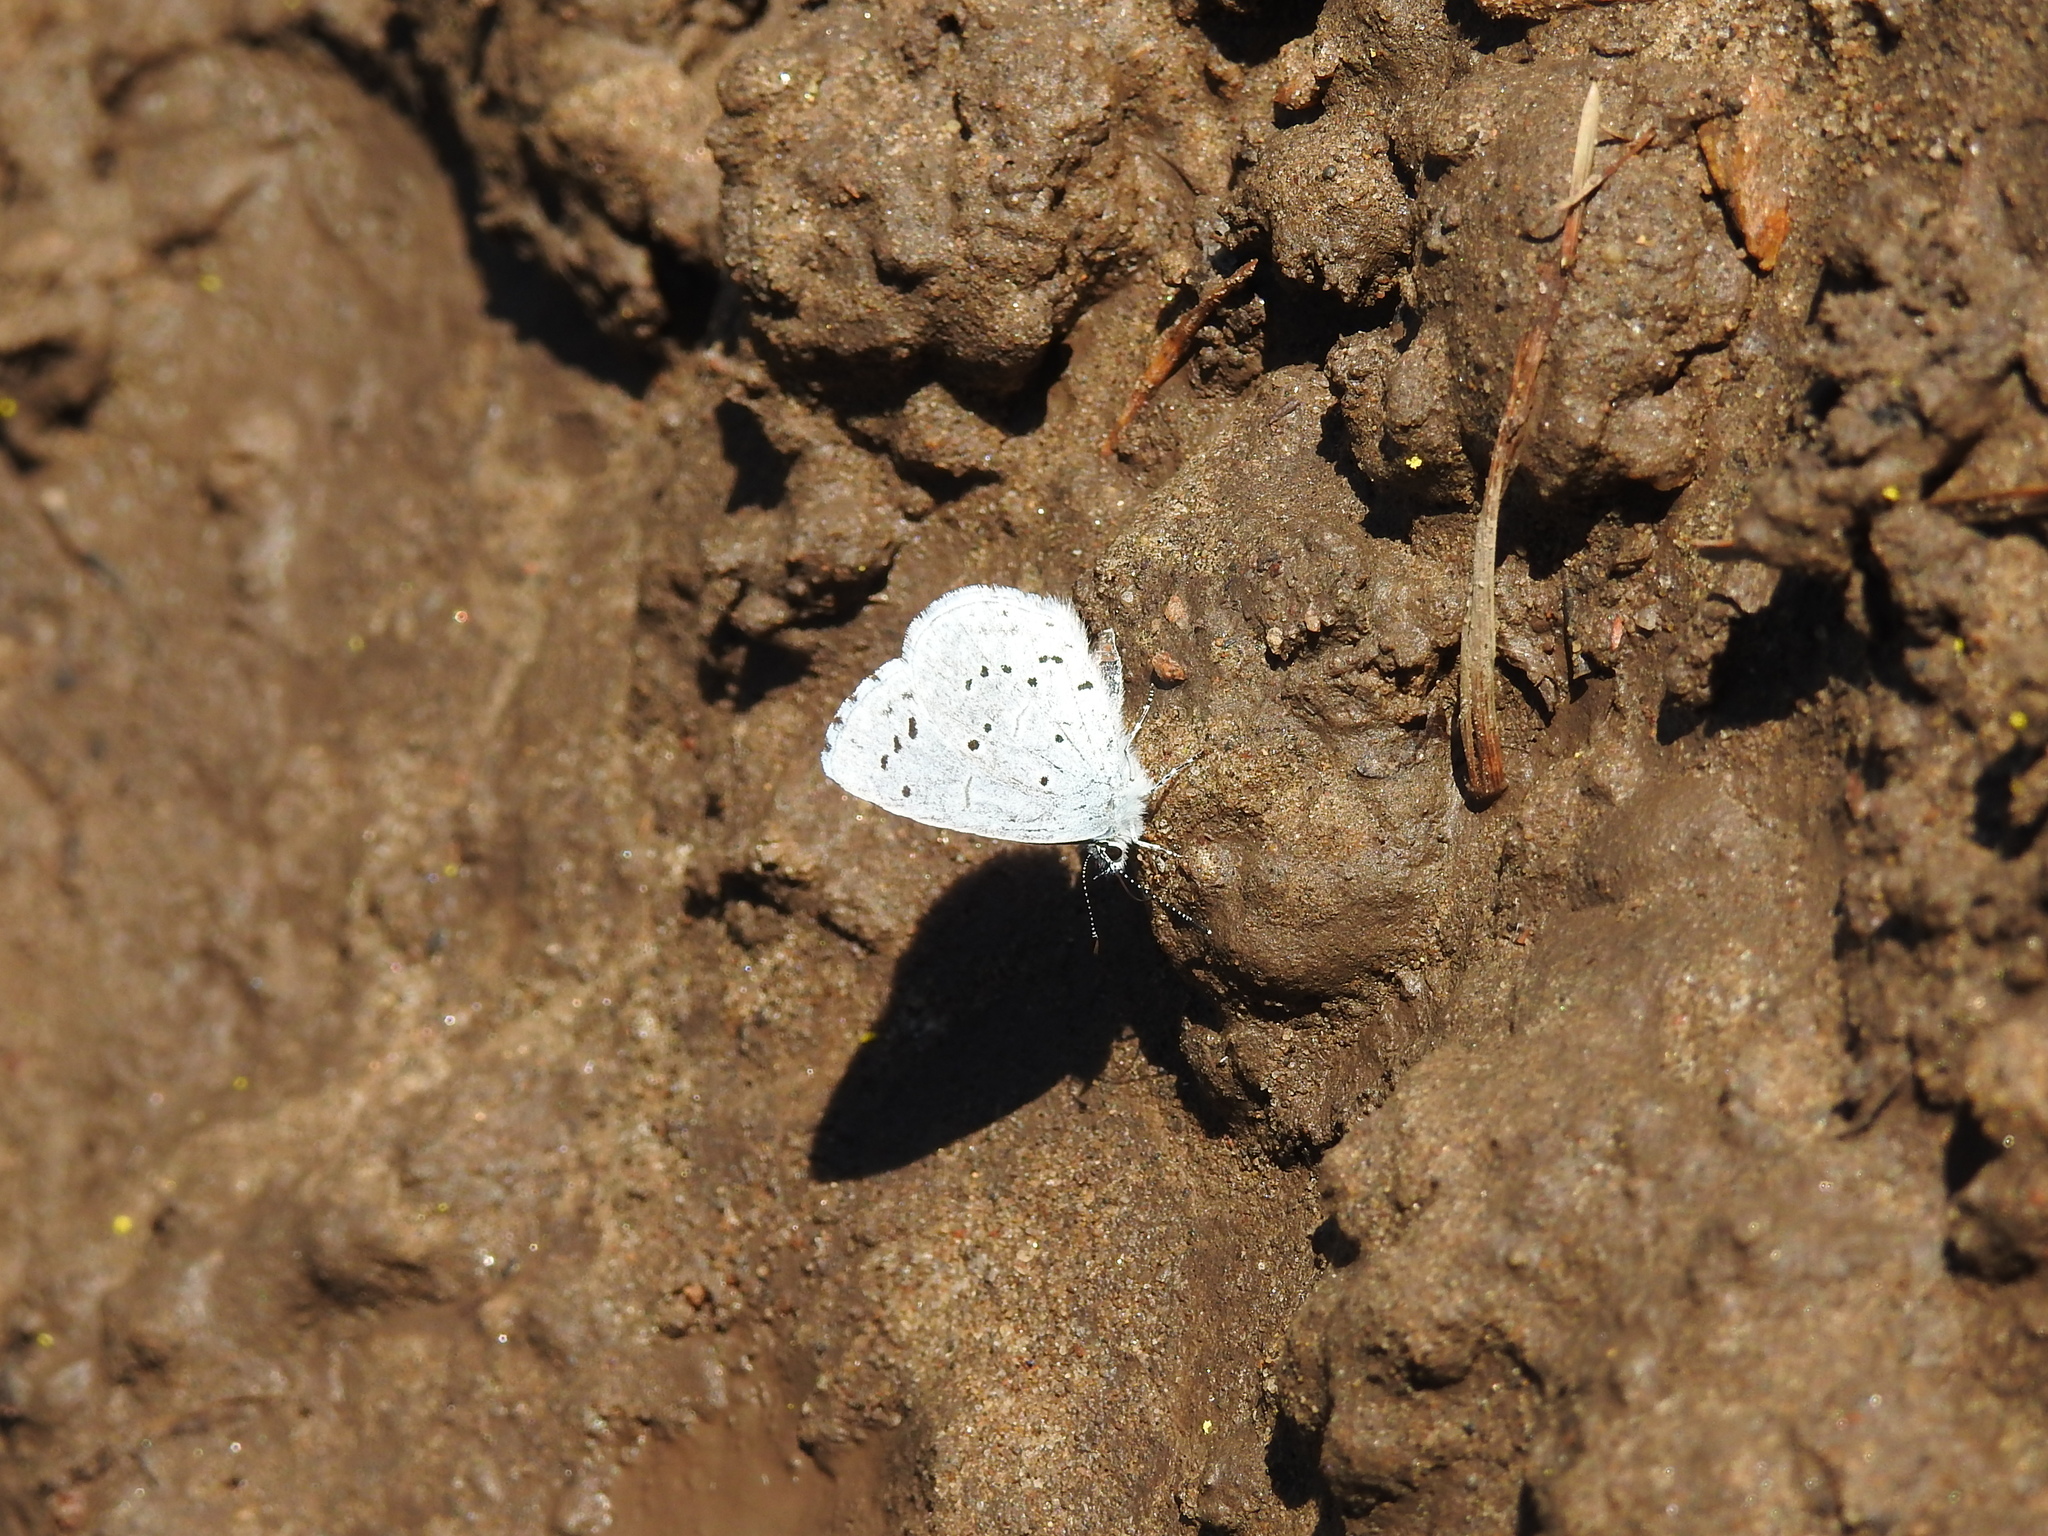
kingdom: Animalia
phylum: Arthropoda
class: Insecta
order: Lepidoptera
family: Lycaenidae
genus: Celastrina
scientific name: Celastrina argiolus
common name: Holly blue
